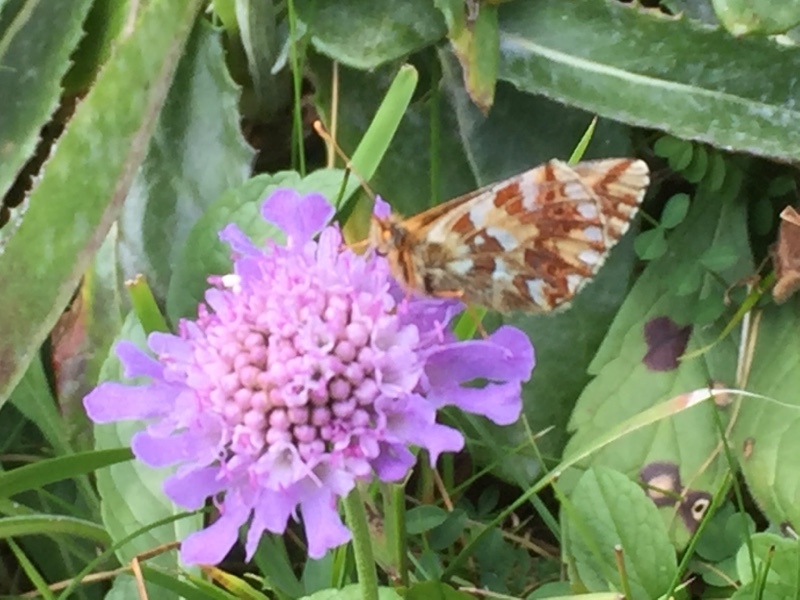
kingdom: Animalia
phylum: Arthropoda
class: Insecta
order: Lepidoptera
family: Nymphalidae
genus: Boloria
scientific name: Boloria pales
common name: Shepherd's fritillary
